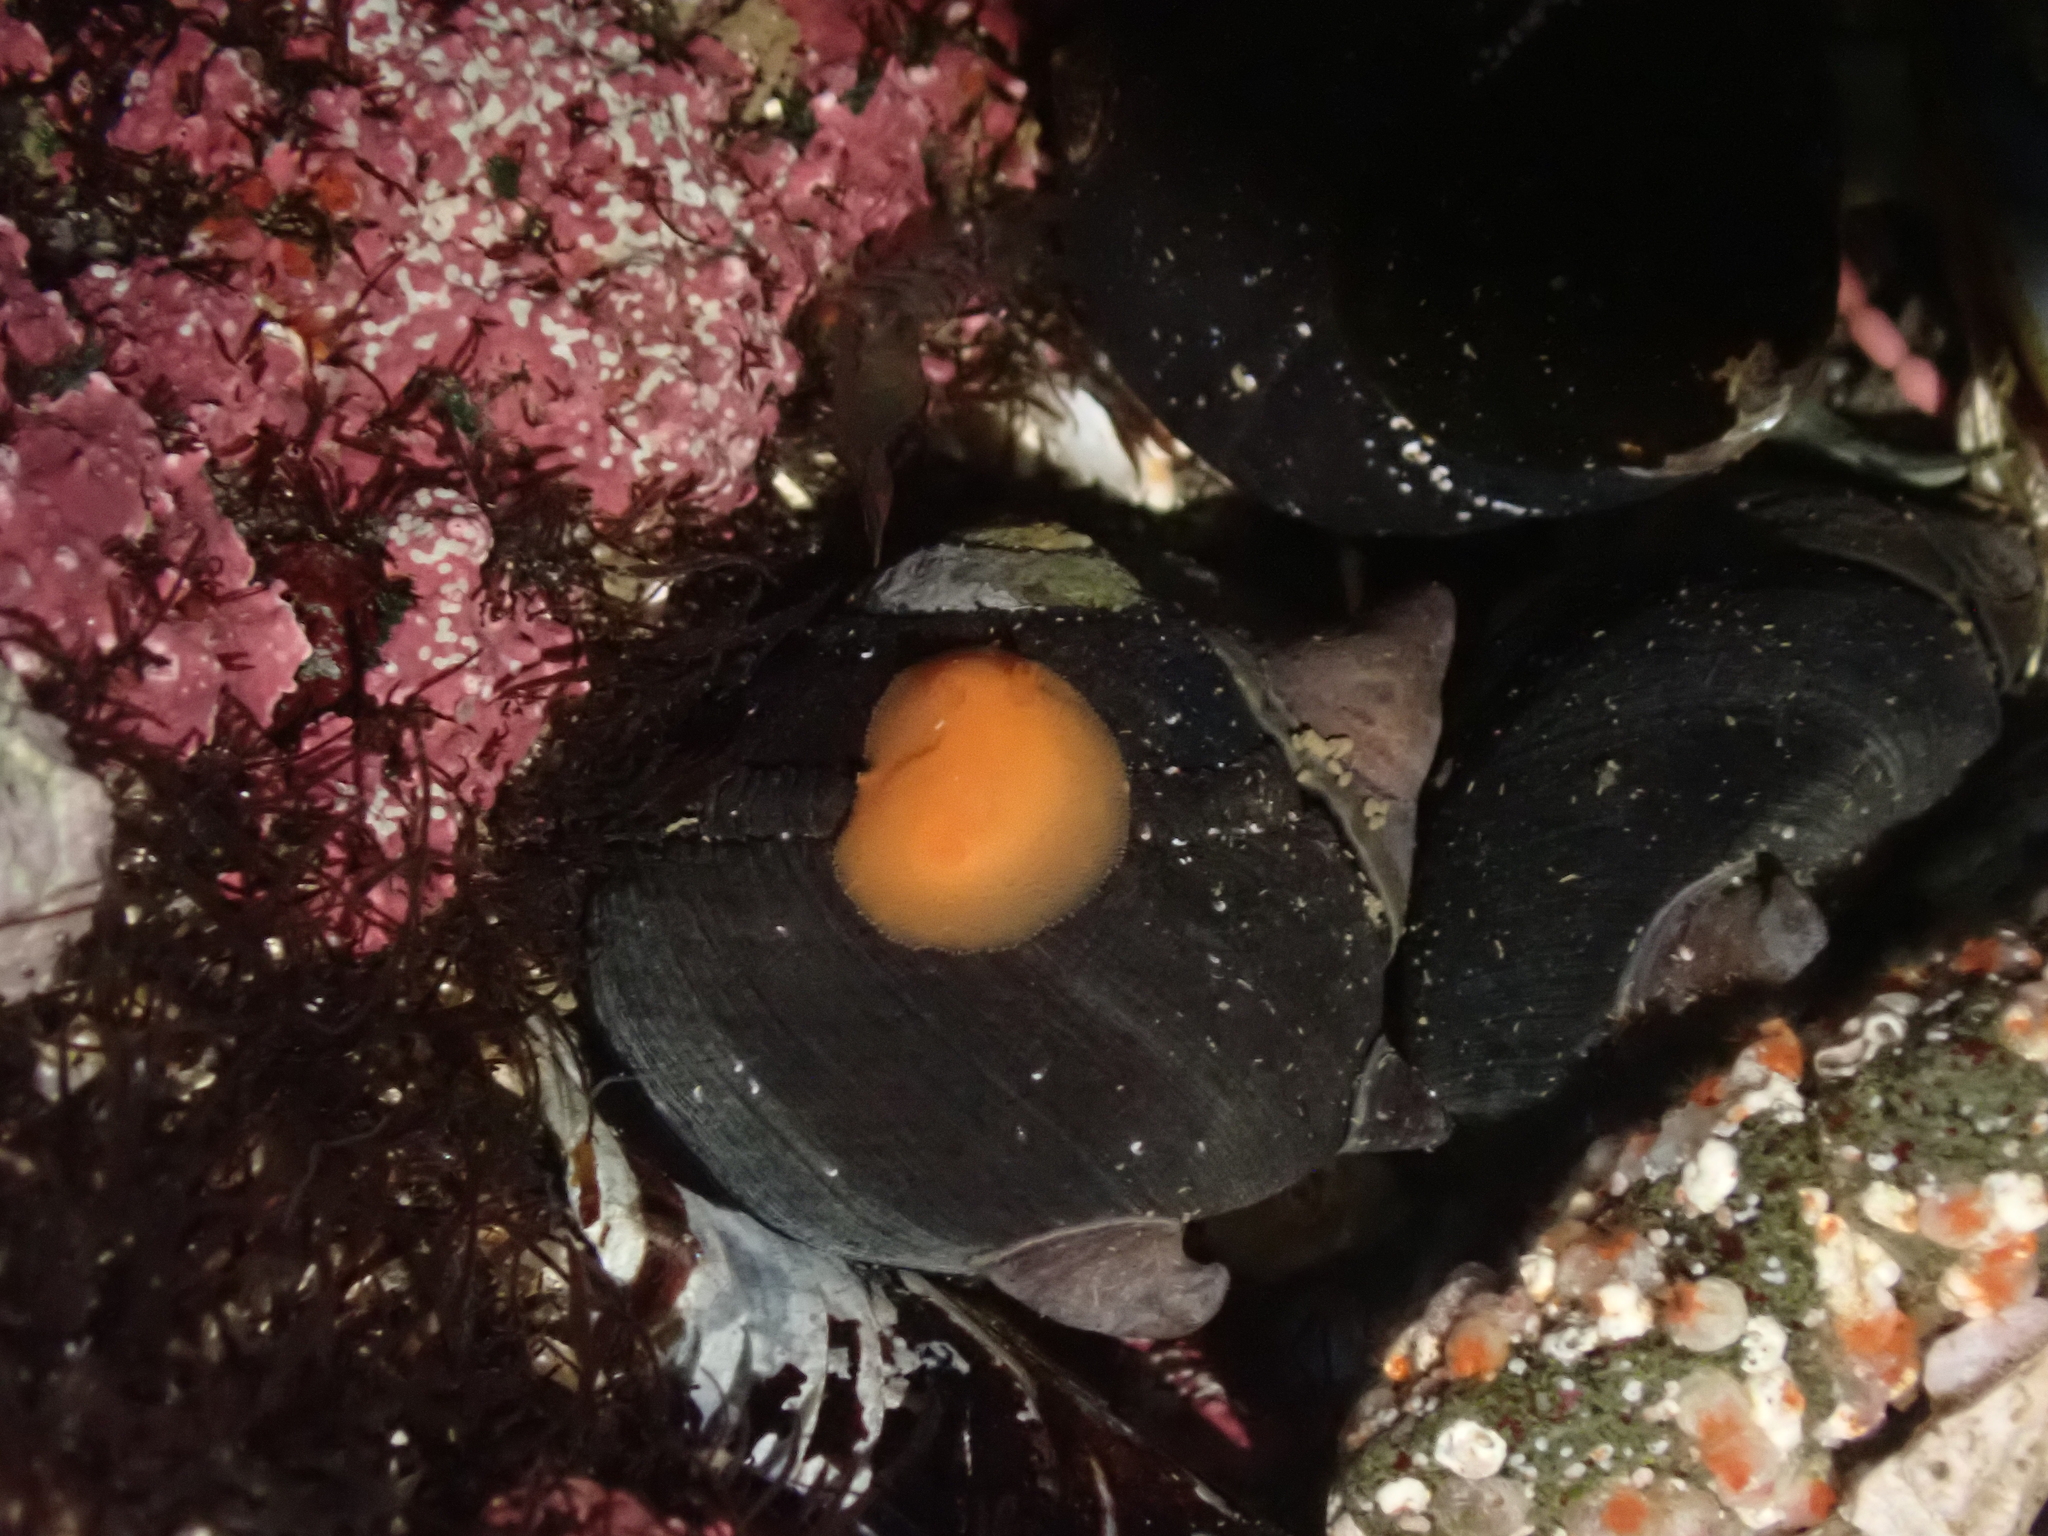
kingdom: Animalia
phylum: Mollusca
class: Gastropoda
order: Nudibranchia
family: Discodorididae
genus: Rostanga
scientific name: Rostanga pulchra
